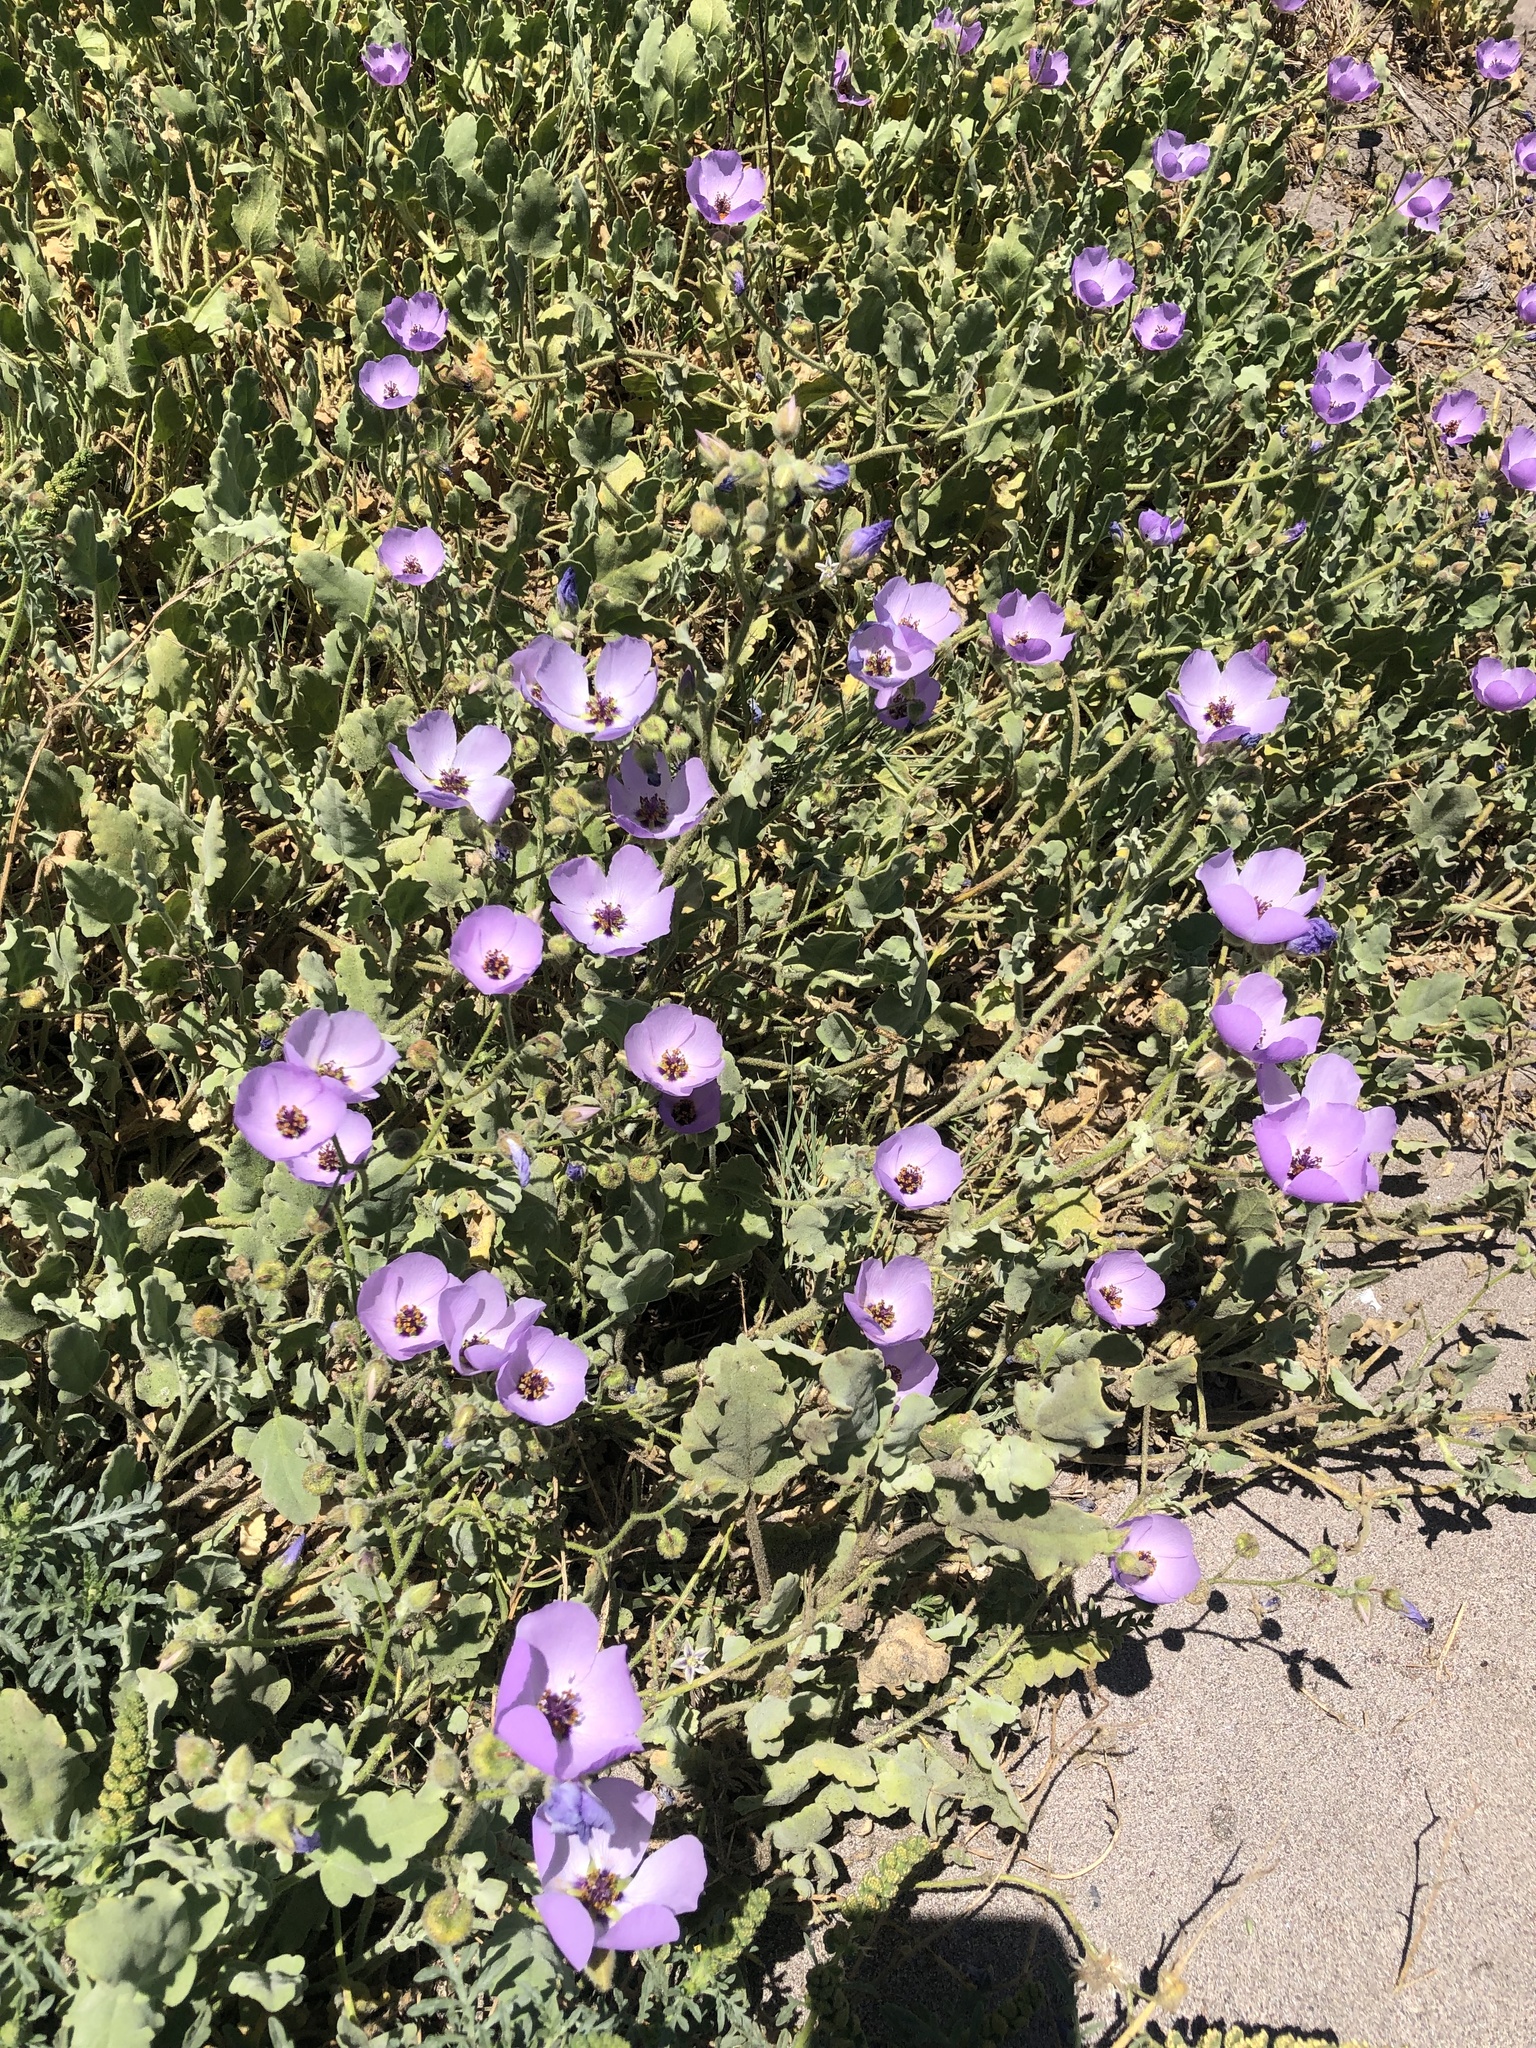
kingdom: Plantae
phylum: Tracheophyta
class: Magnoliopsida
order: Malvales
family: Malvaceae
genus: Cristaria
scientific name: Cristaria glaucophylla
